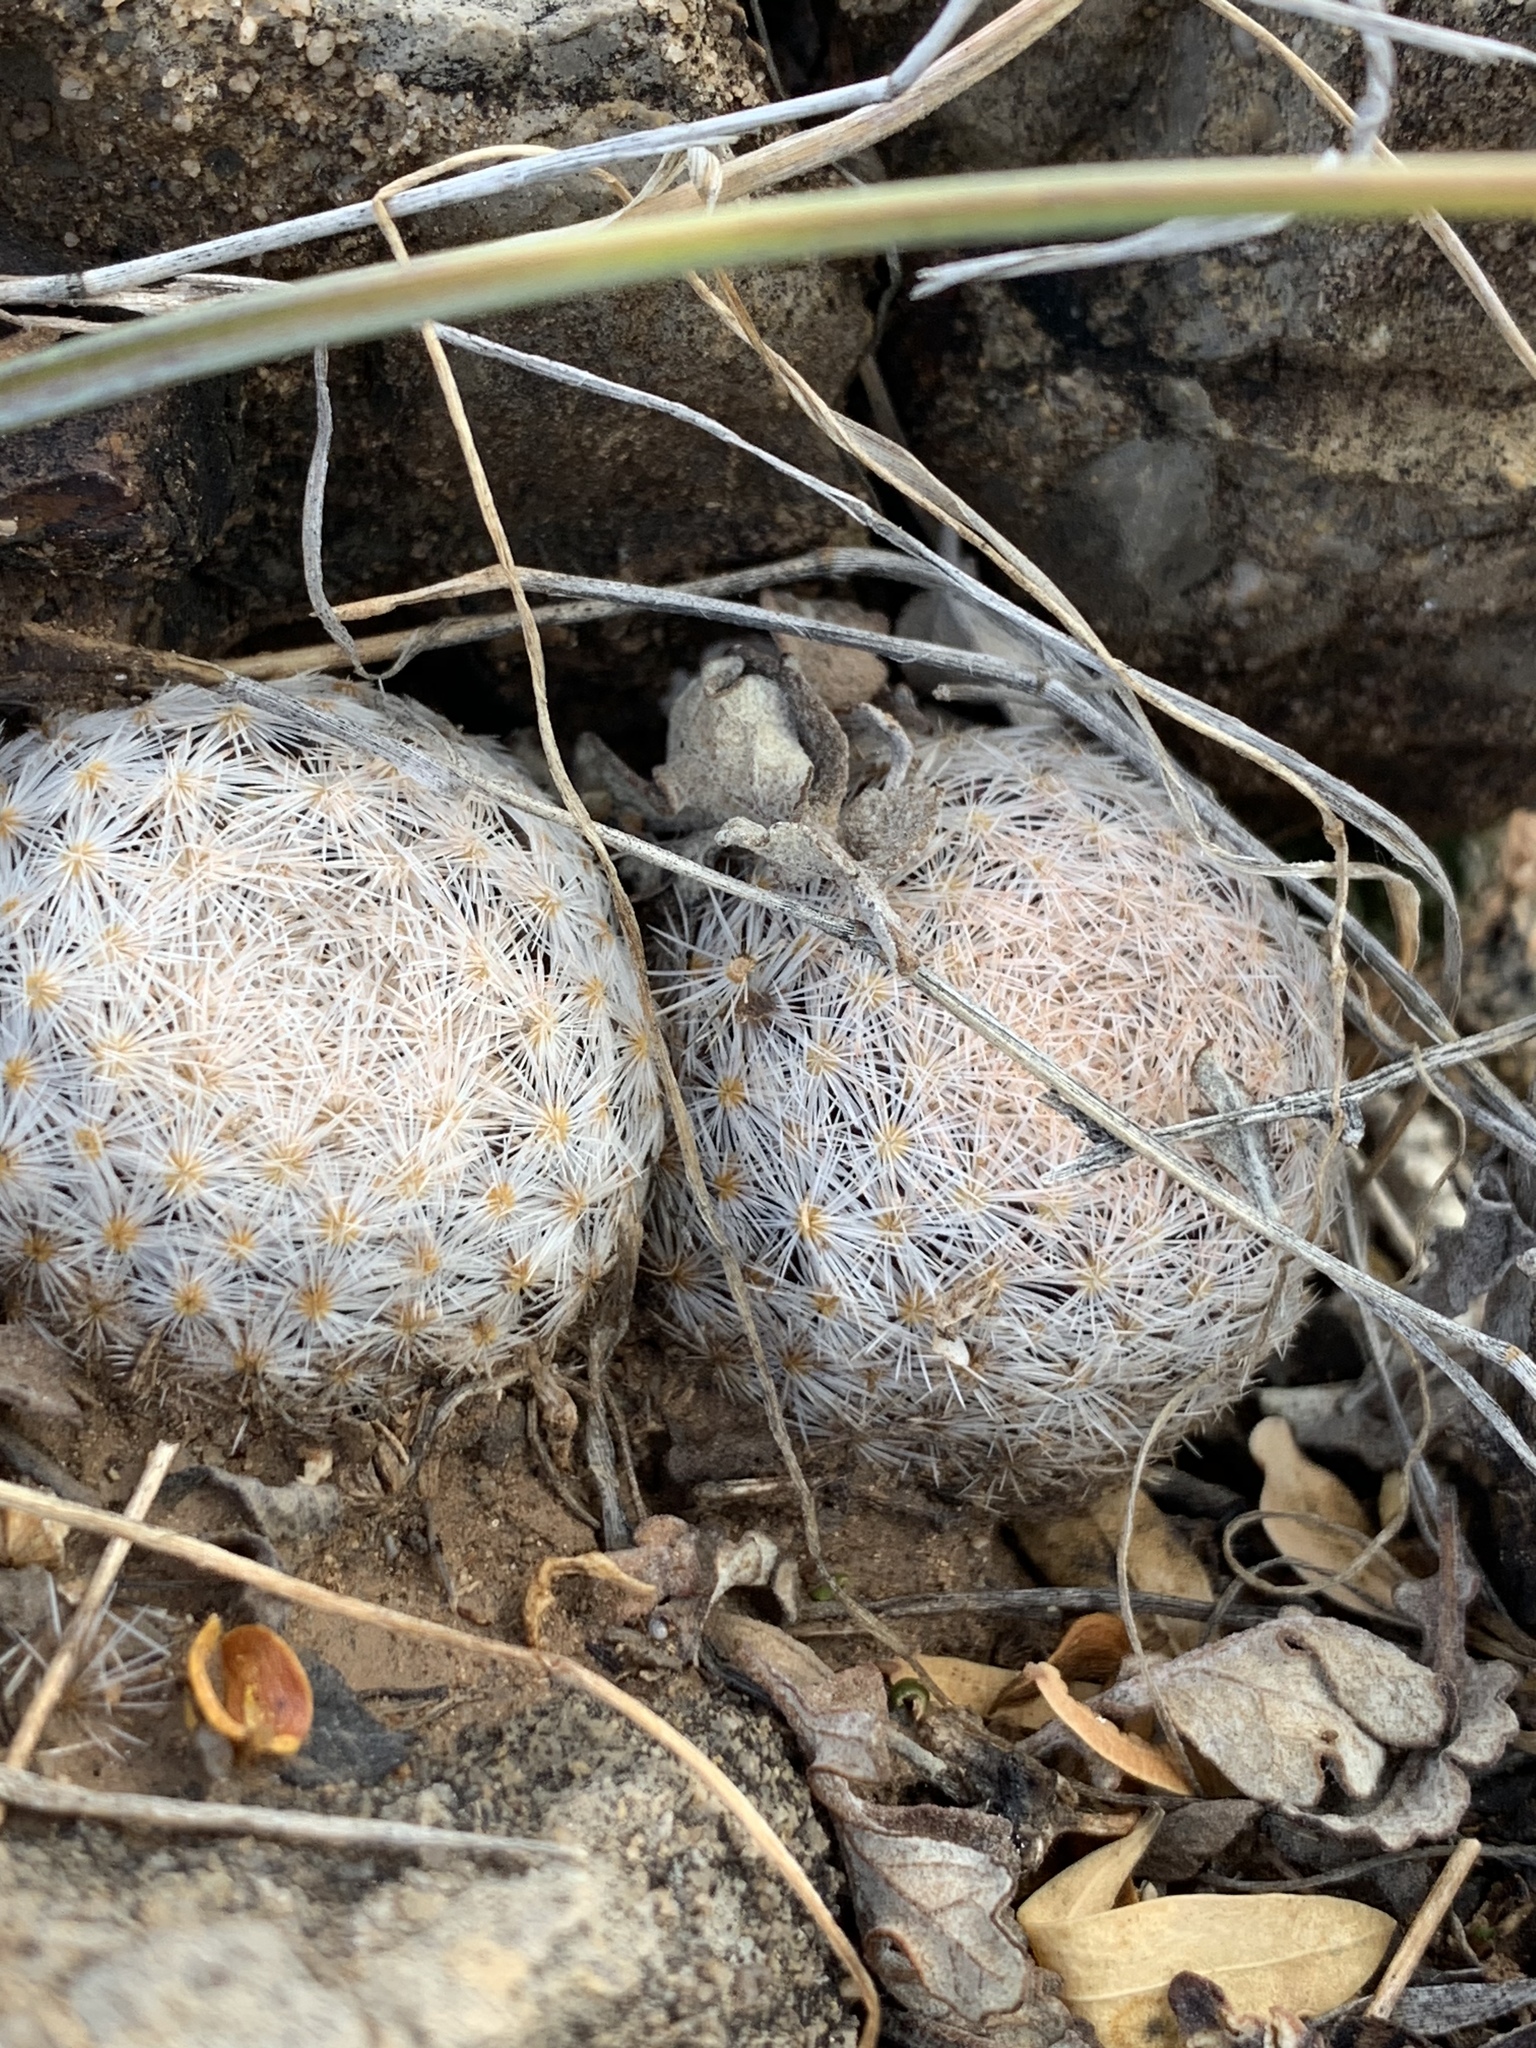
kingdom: Plantae
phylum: Tracheophyta
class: Magnoliopsida
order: Caryophyllales
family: Cactaceae
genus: Mammillaria
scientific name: Mammillaria lasiacantha
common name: Lace-spine nipple cactus
